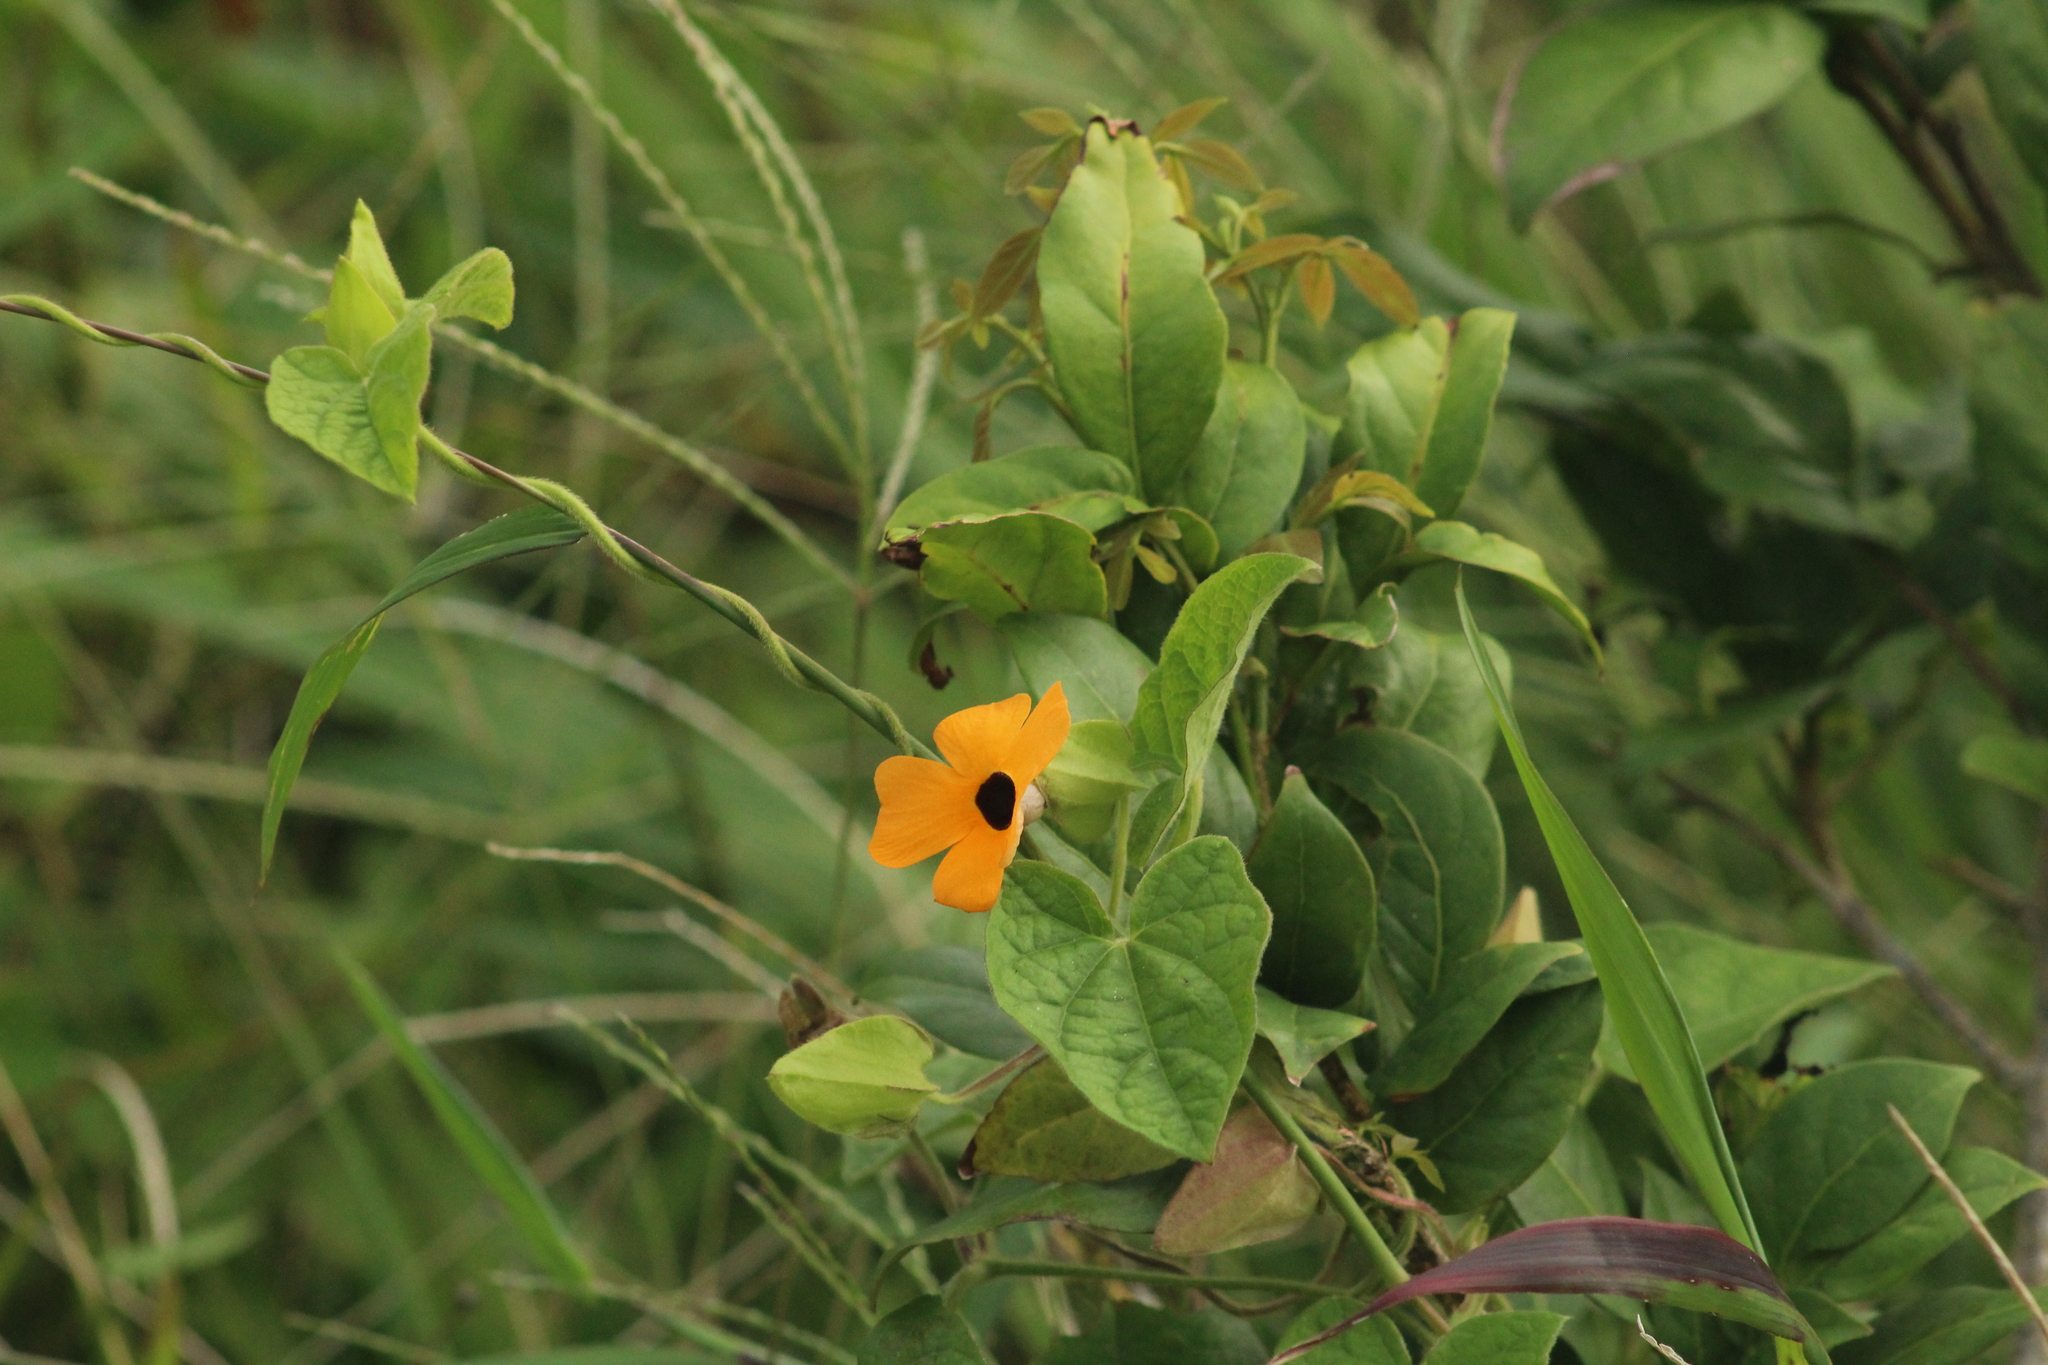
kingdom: Plantae
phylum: Tracheophyta
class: Magnoliopsida
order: Lamiales
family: Acanthaceae
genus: Thunbergia
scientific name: Thunbergia alata
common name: Blackeyed susan vine
